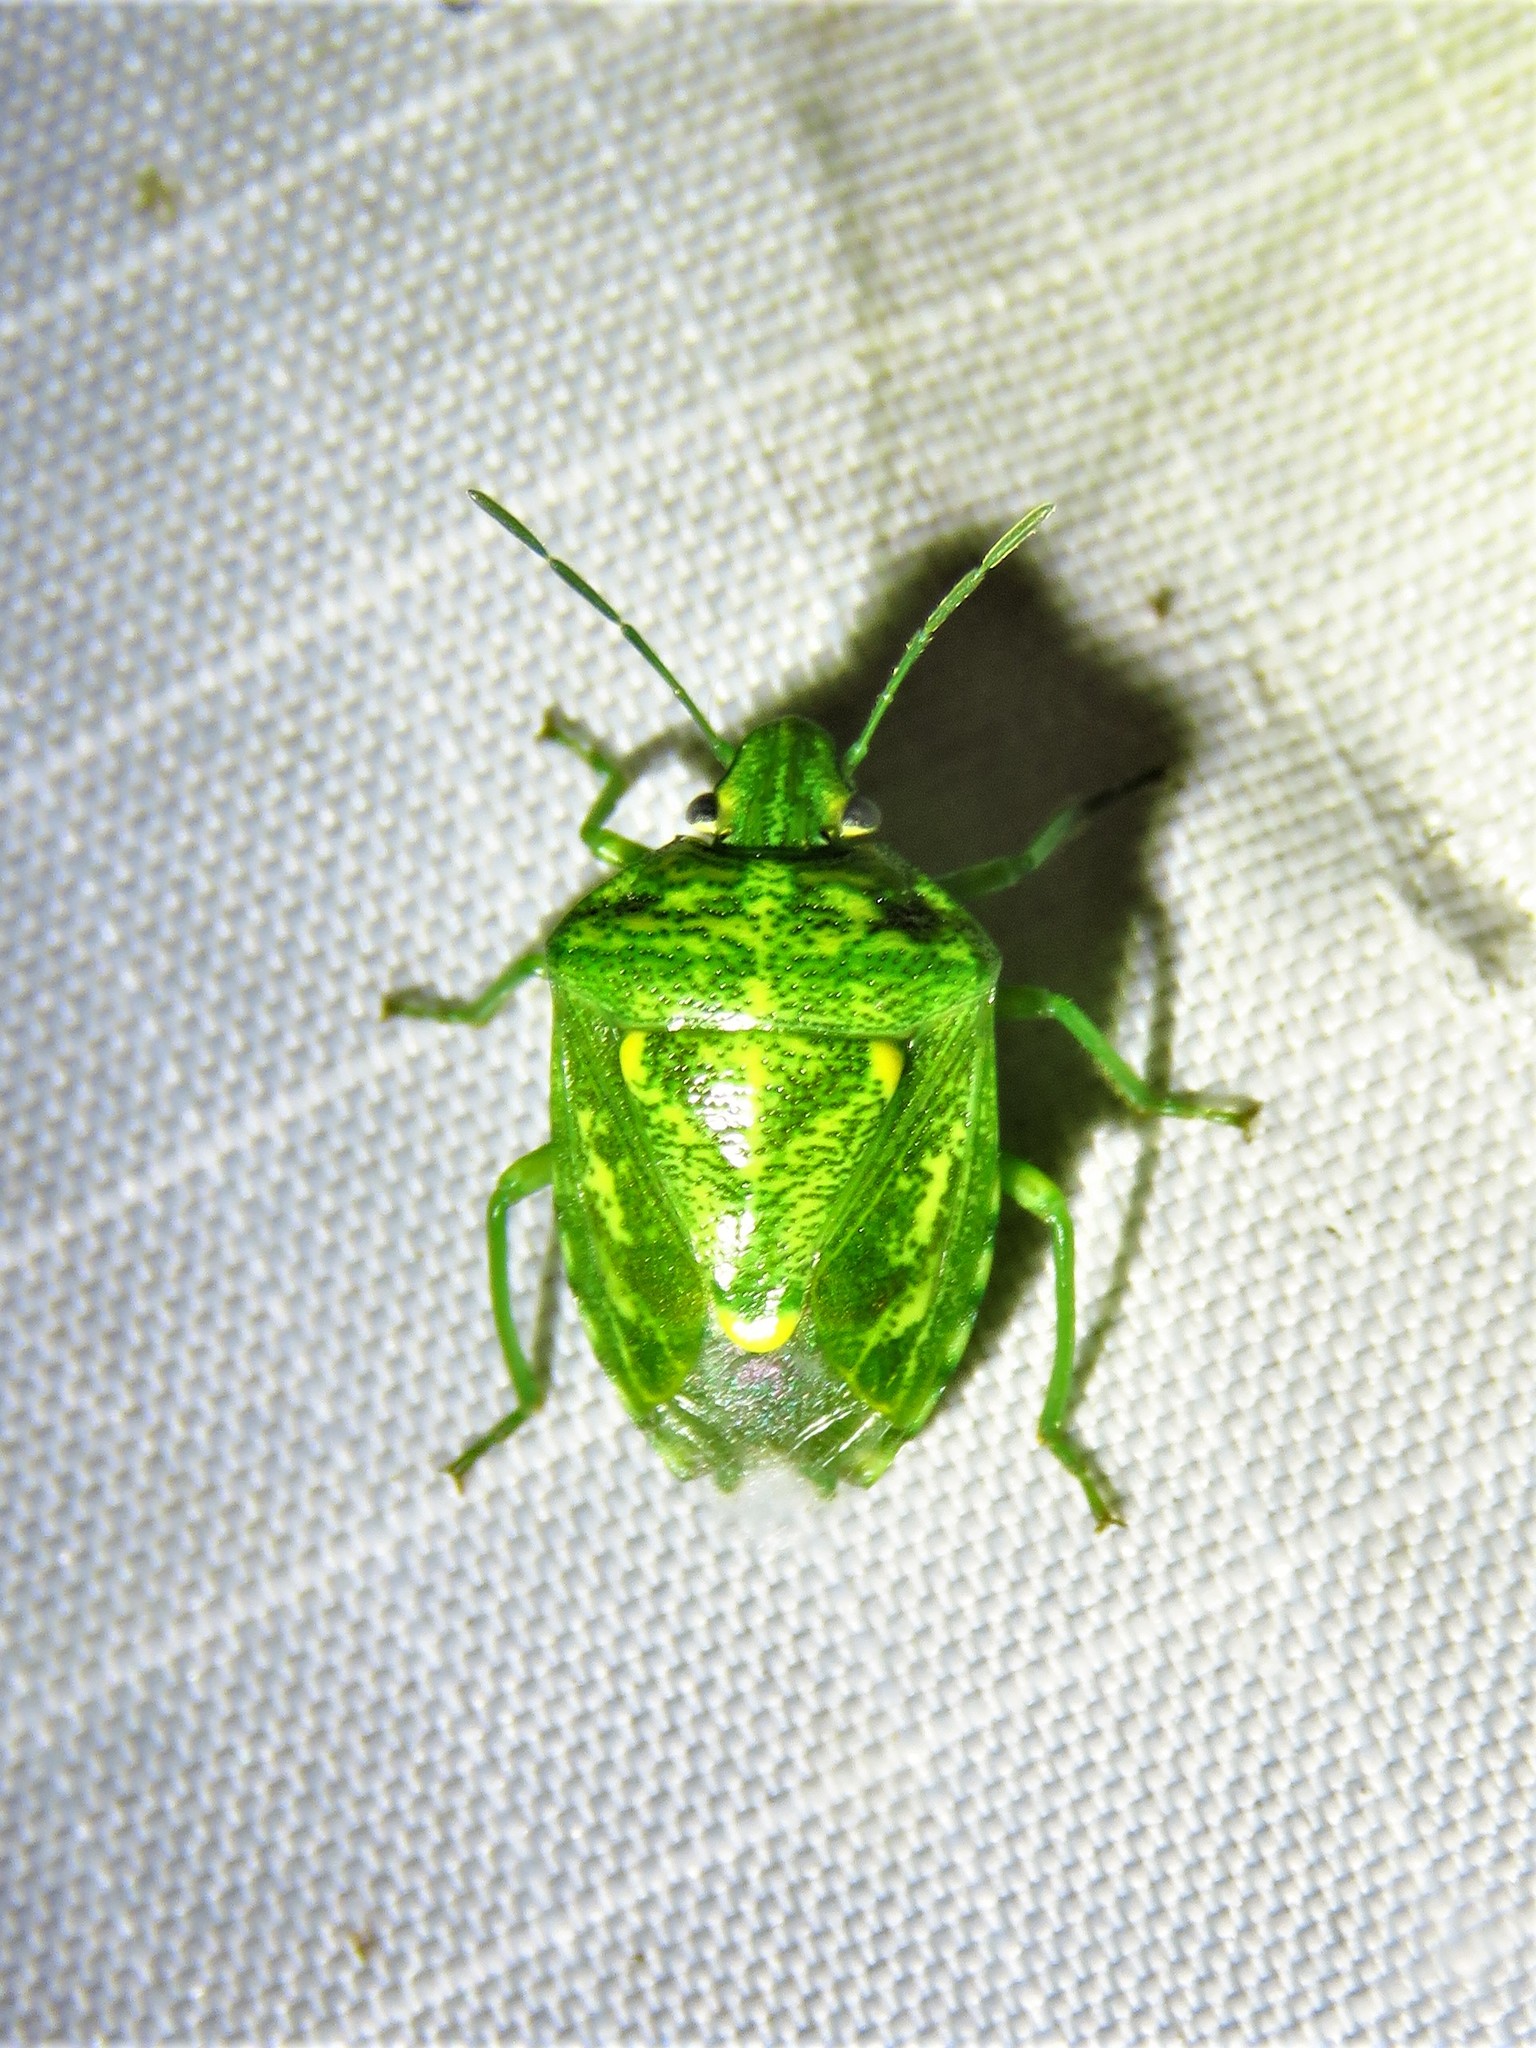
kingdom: Animalia
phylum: Arthropoda
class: Insecta
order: Hemiptera
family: Pentatomidae
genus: Banasa
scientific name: Banasa euchlora
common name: Cedar berry bug
